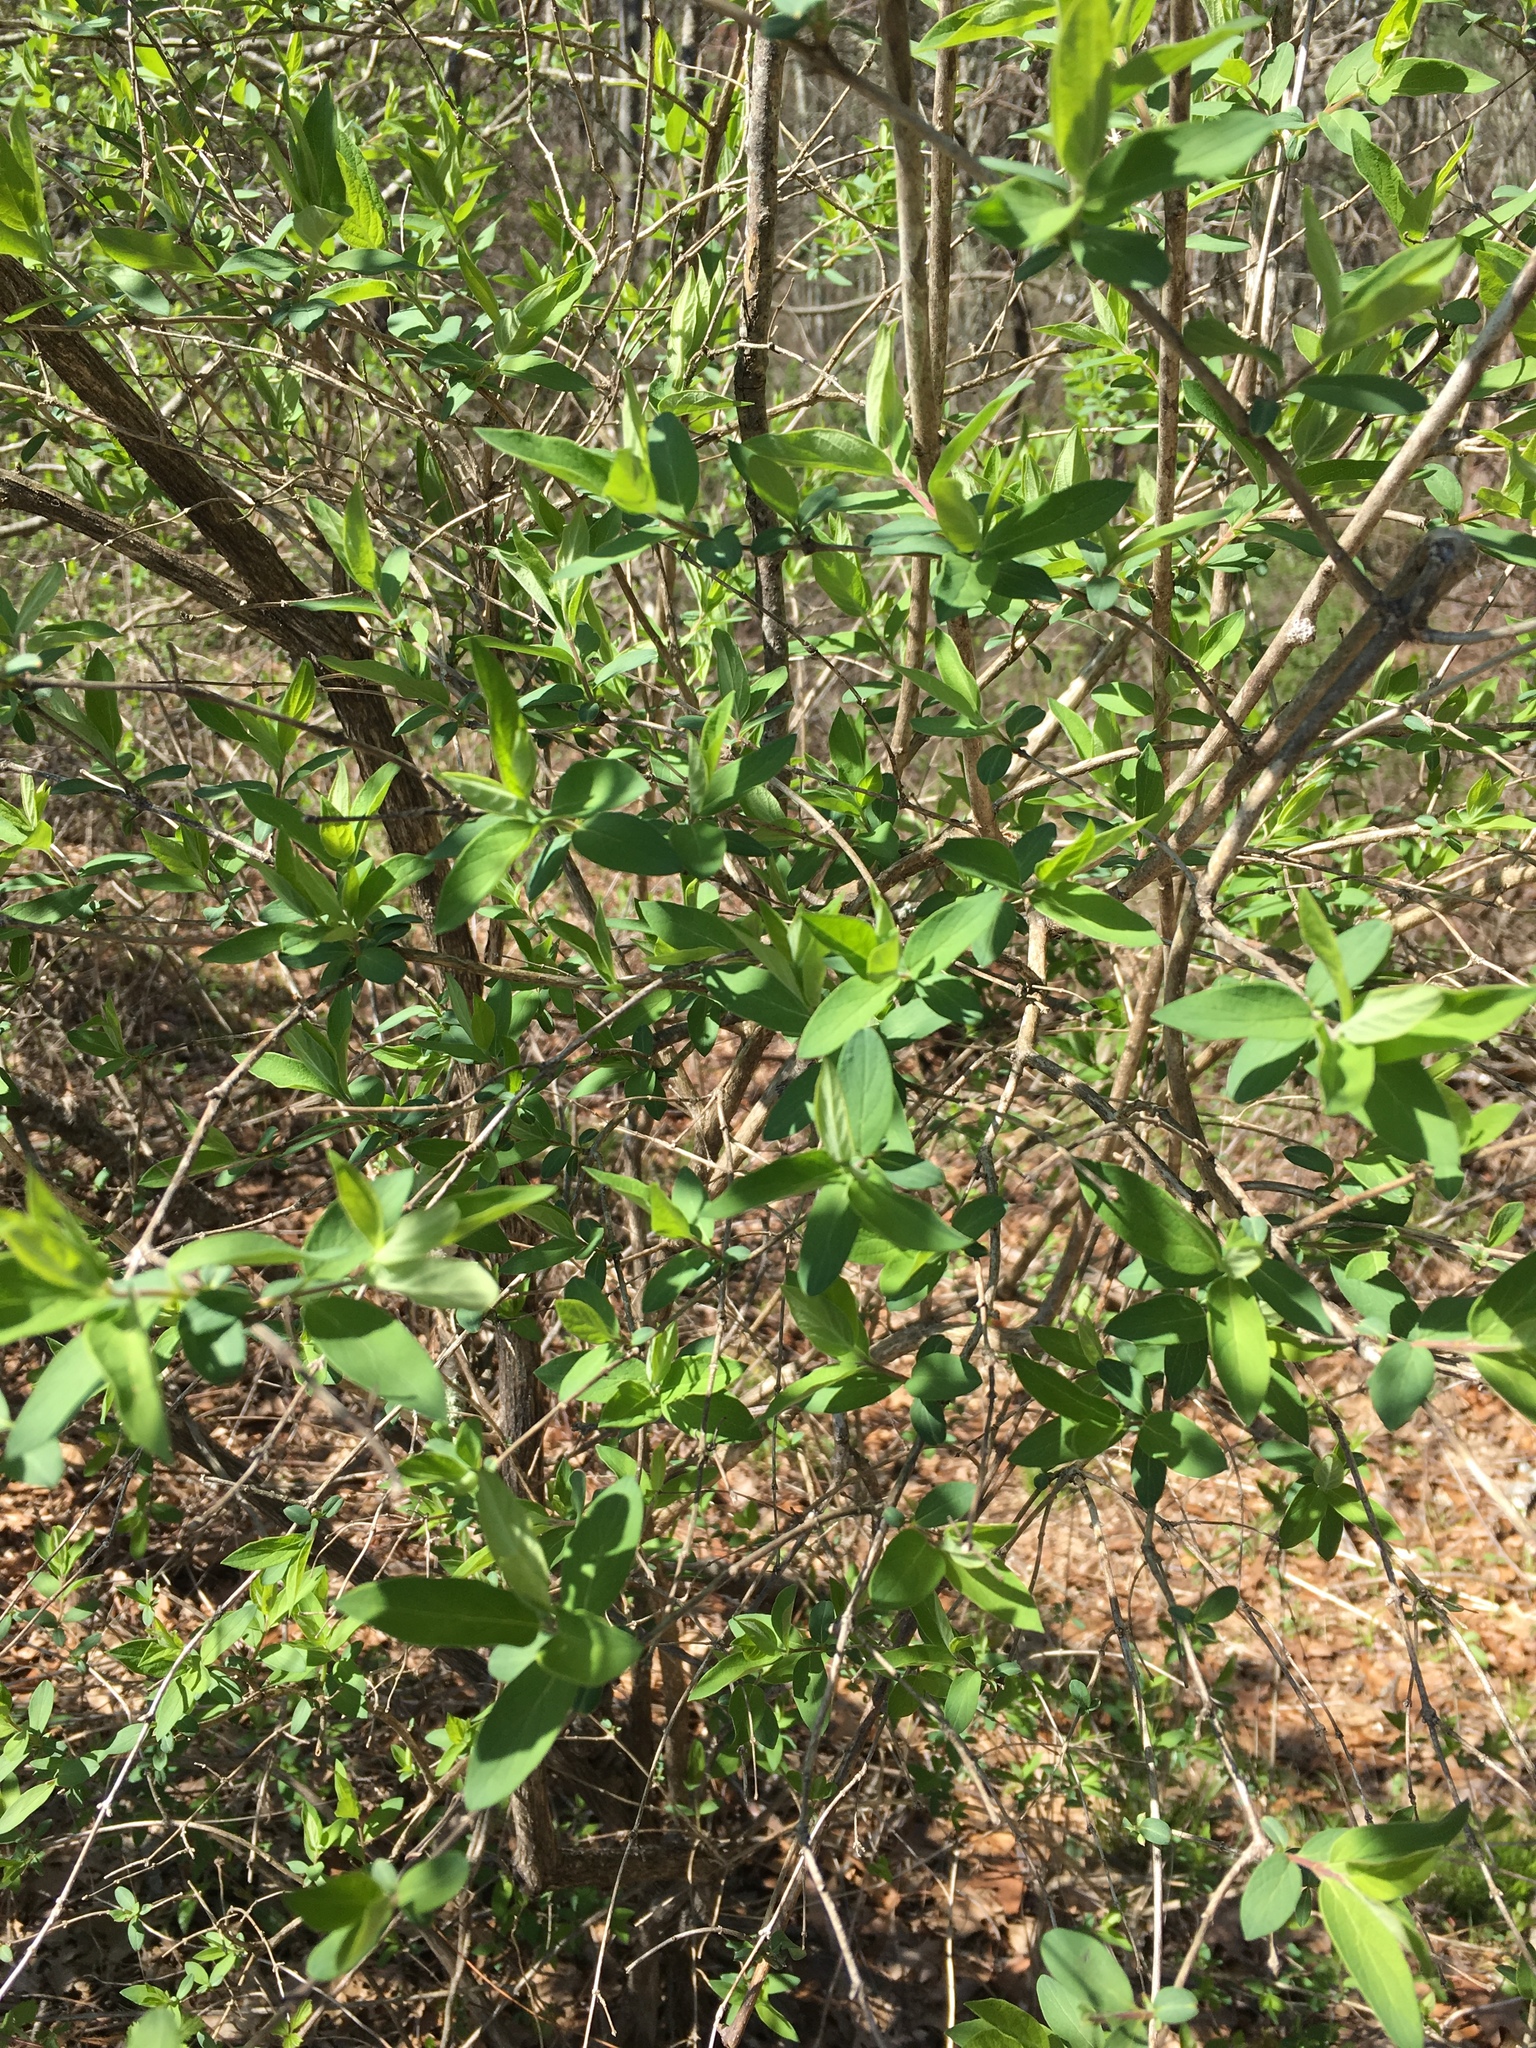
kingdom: Plantae
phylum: Tracheophyta
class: Magnoliopsida
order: Dipsacales
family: Caprifoliaceae
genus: Lonicera
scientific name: Lonicera morrowii
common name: Morrow's honeysuckle
